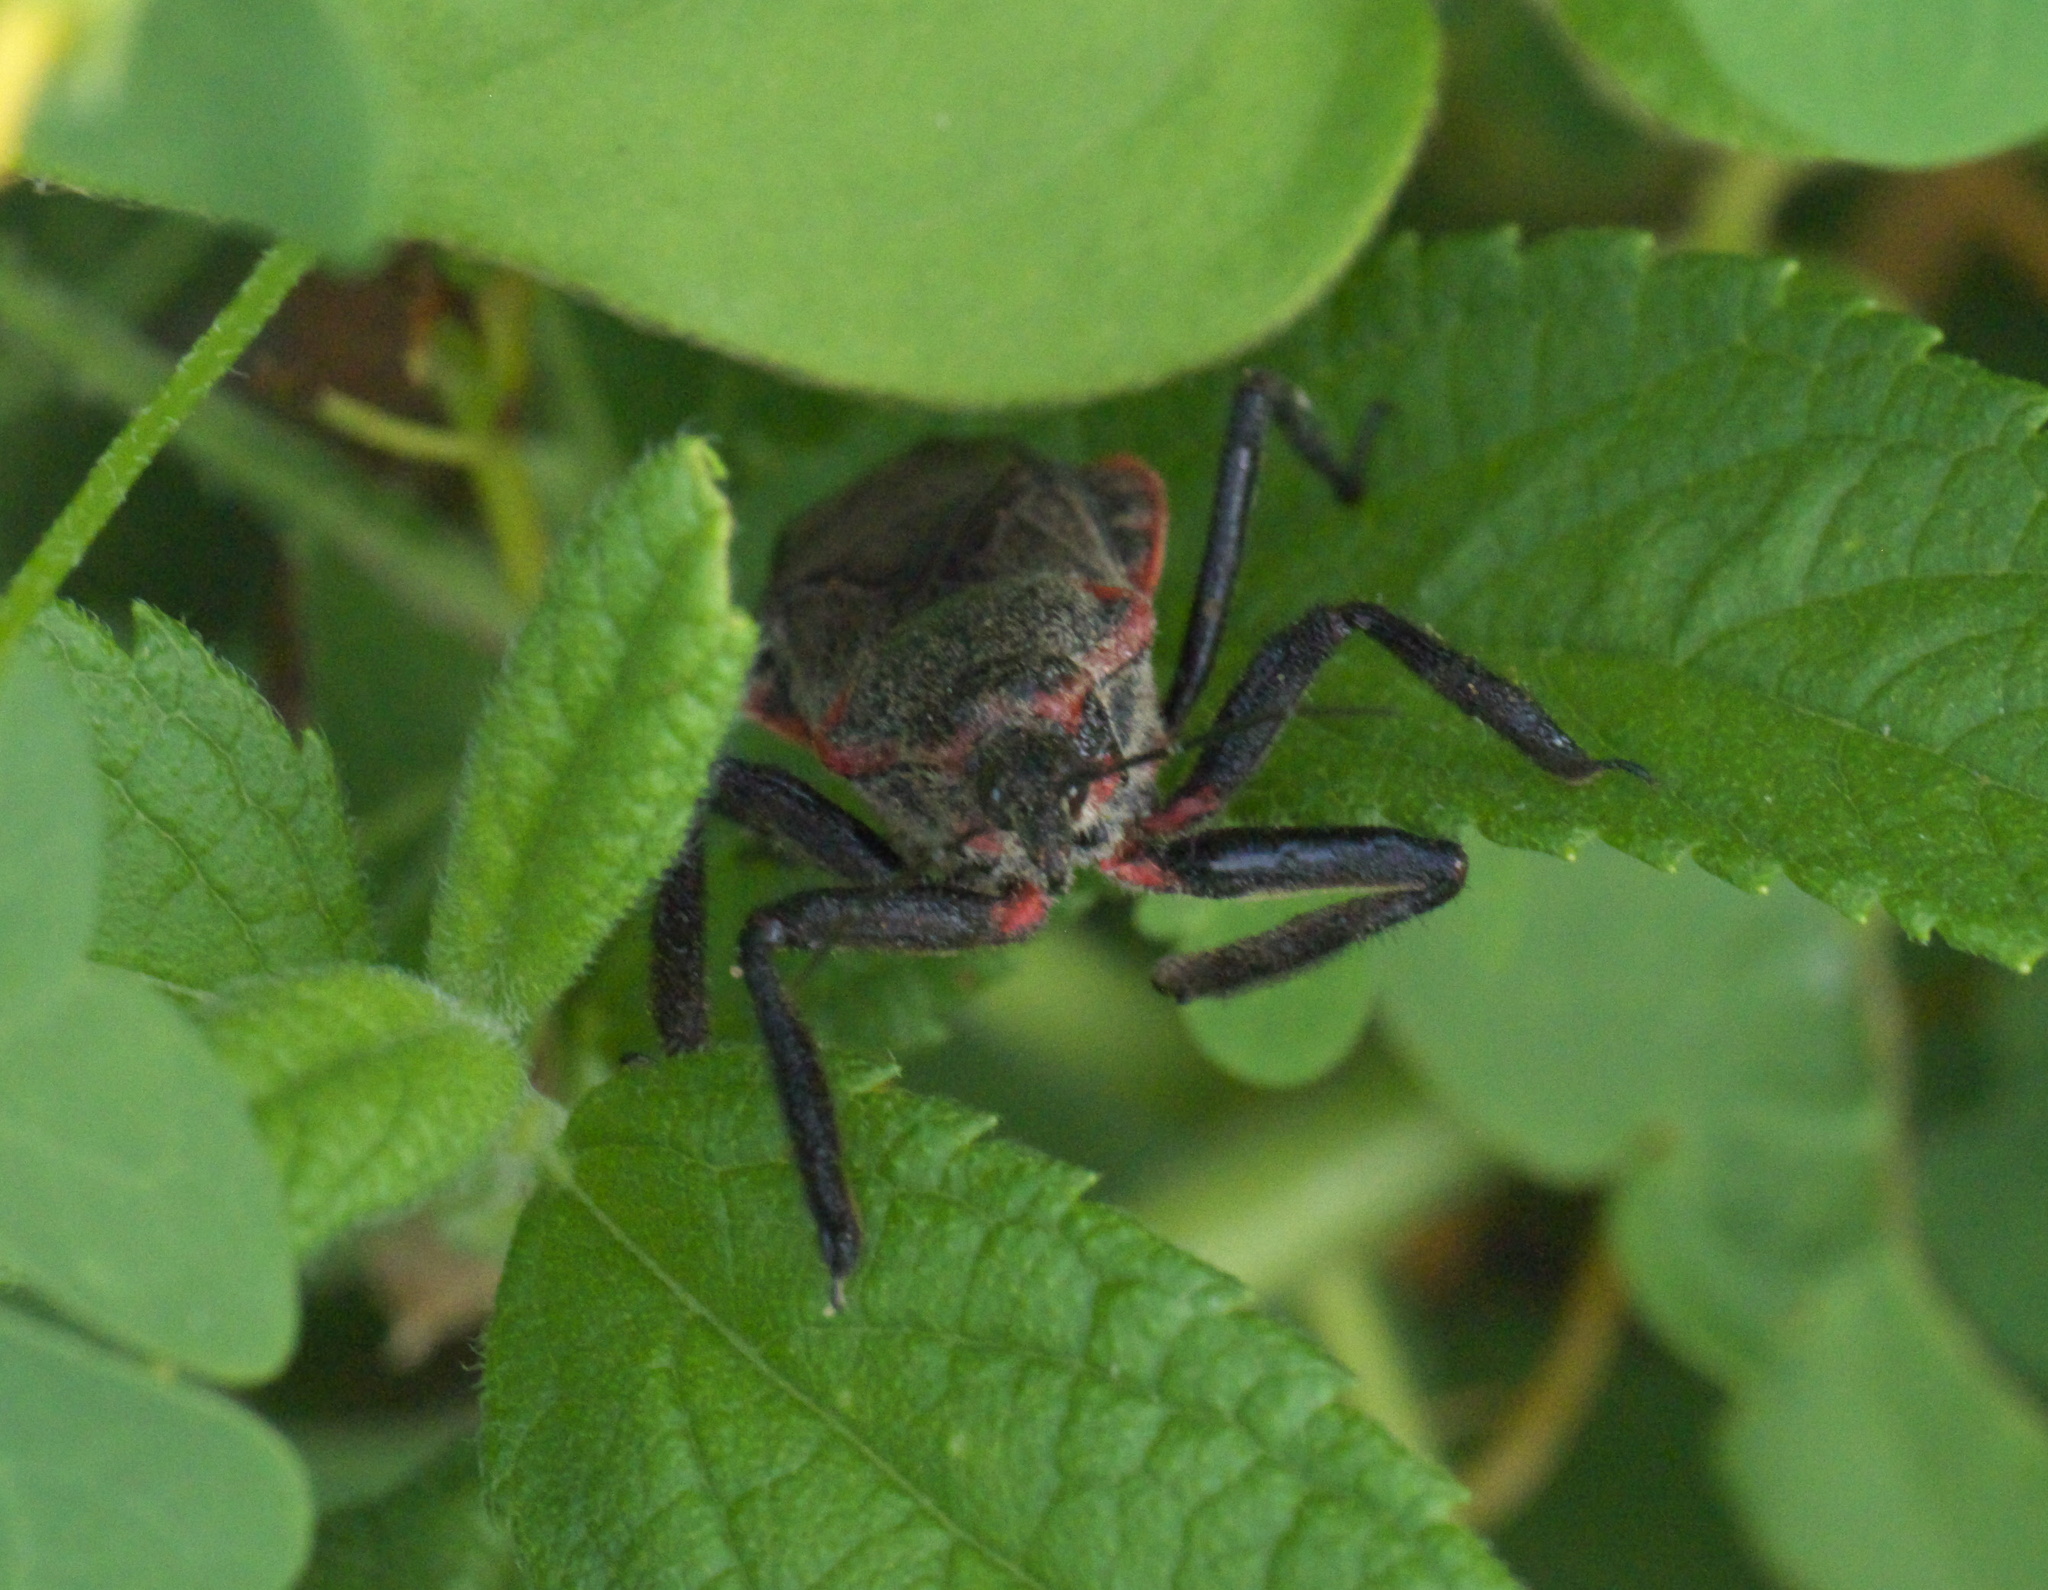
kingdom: Animalia
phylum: Arthropoda
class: Insecta
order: Hemiptera
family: Reduviidae
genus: Apiomerus
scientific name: Apiomerus crassipes
